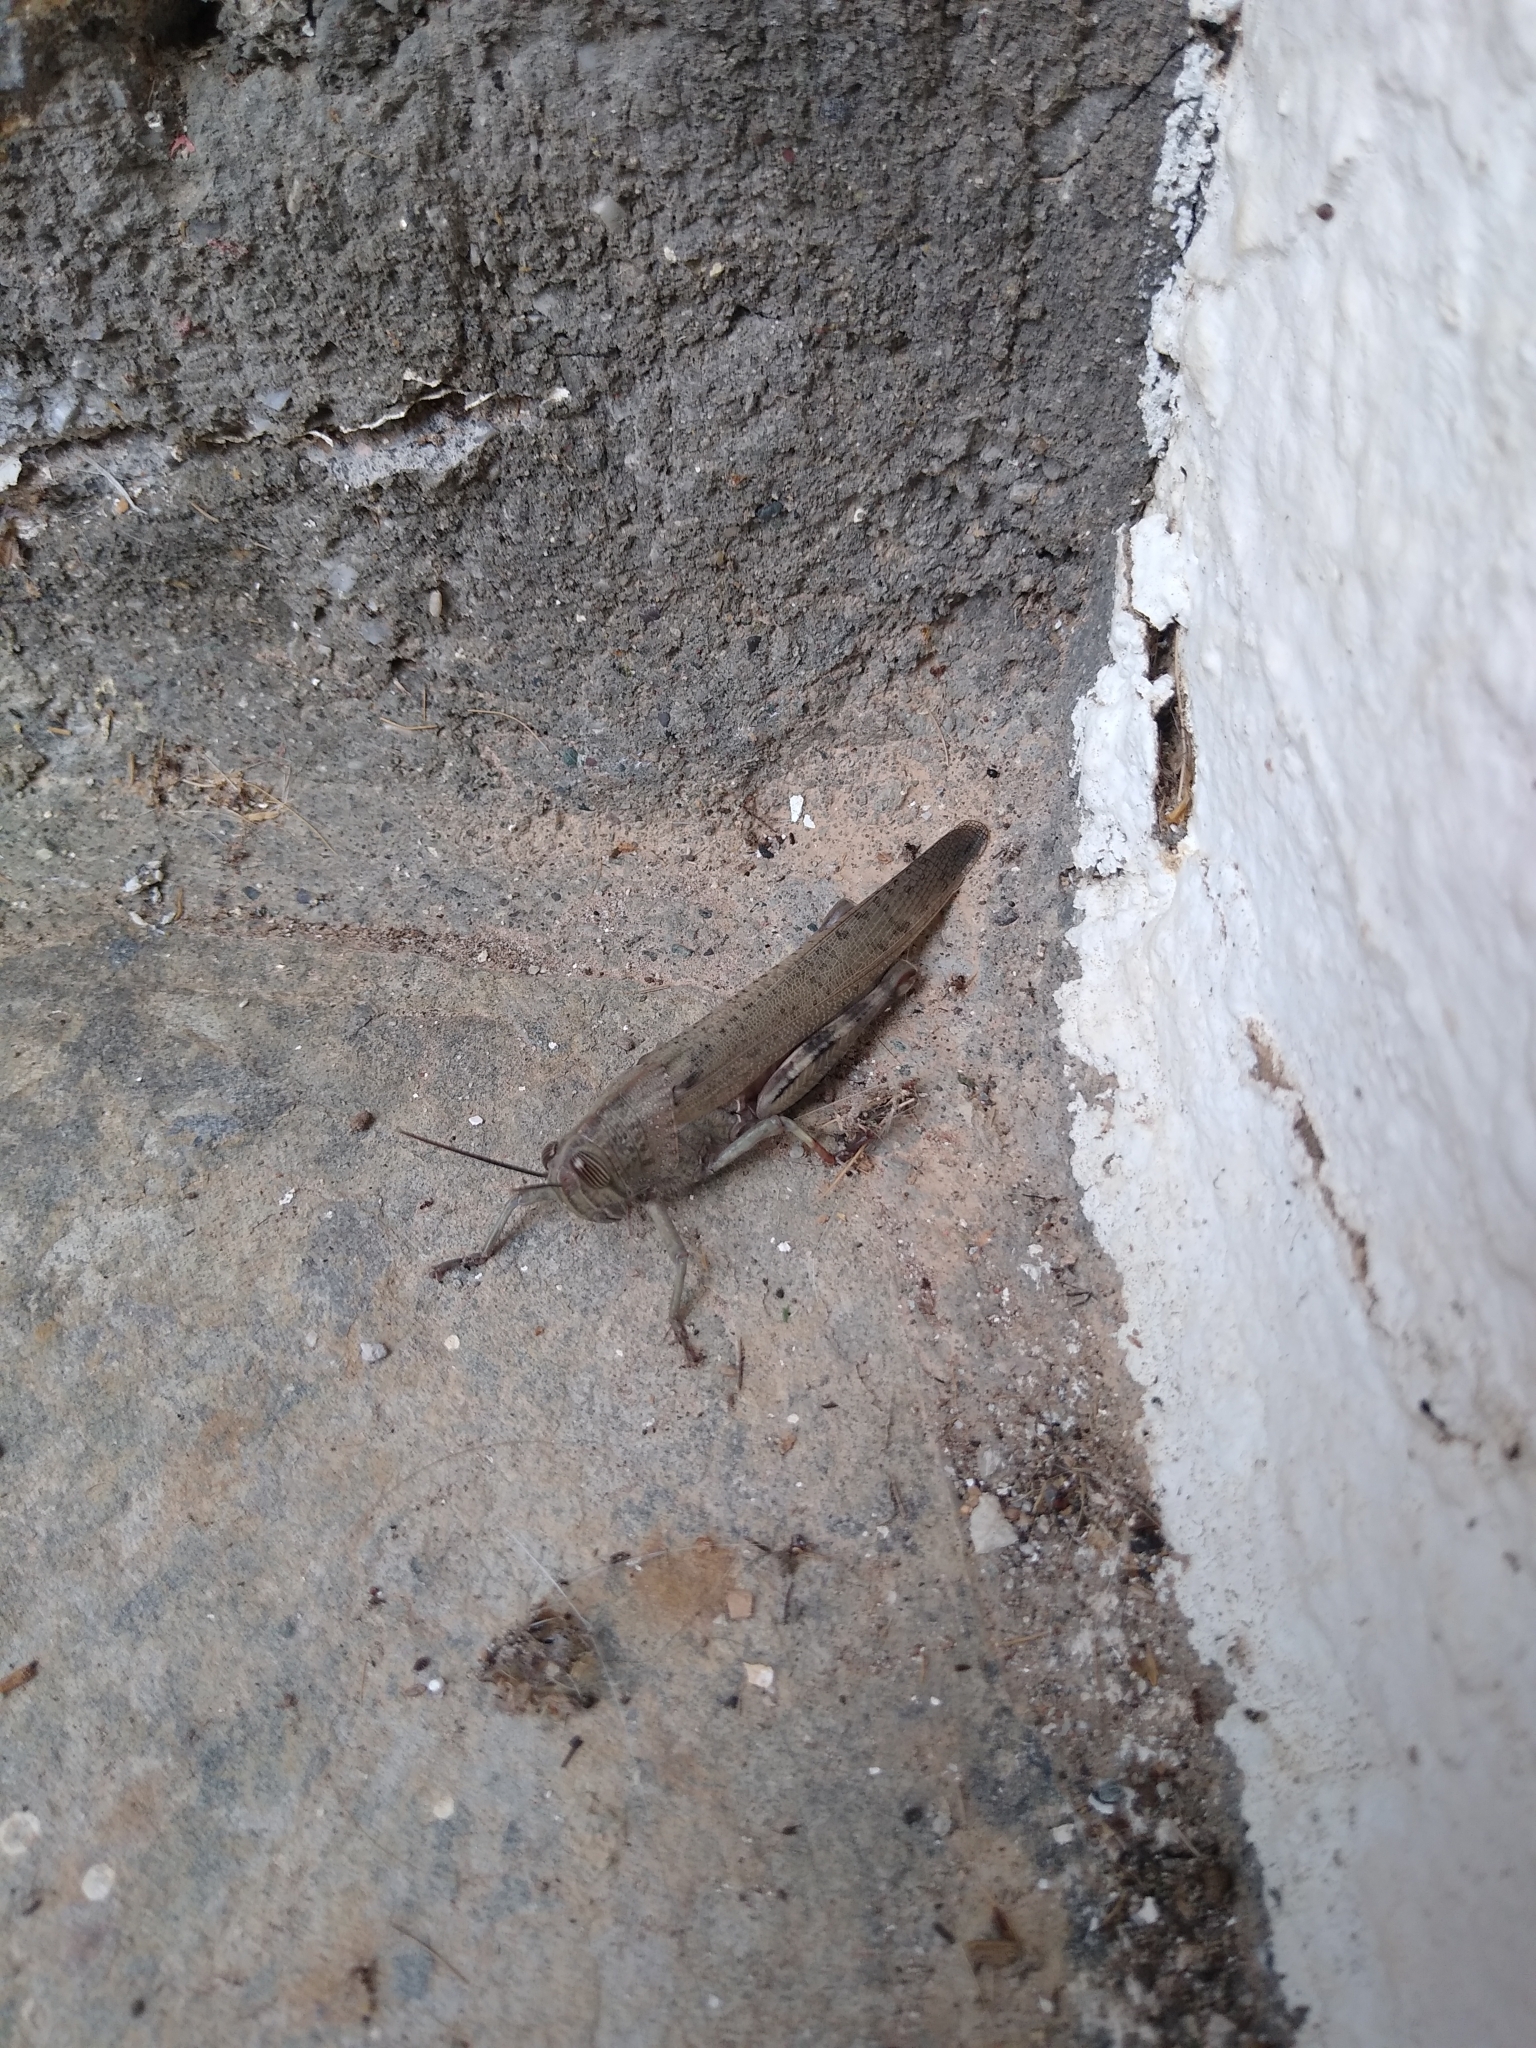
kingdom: Animalia
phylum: Arthropoda
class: Insecta
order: Orthoptera
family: Acrididae
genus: Anacridium
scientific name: Anacridium aegyptium
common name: Egyptian grasshopper
